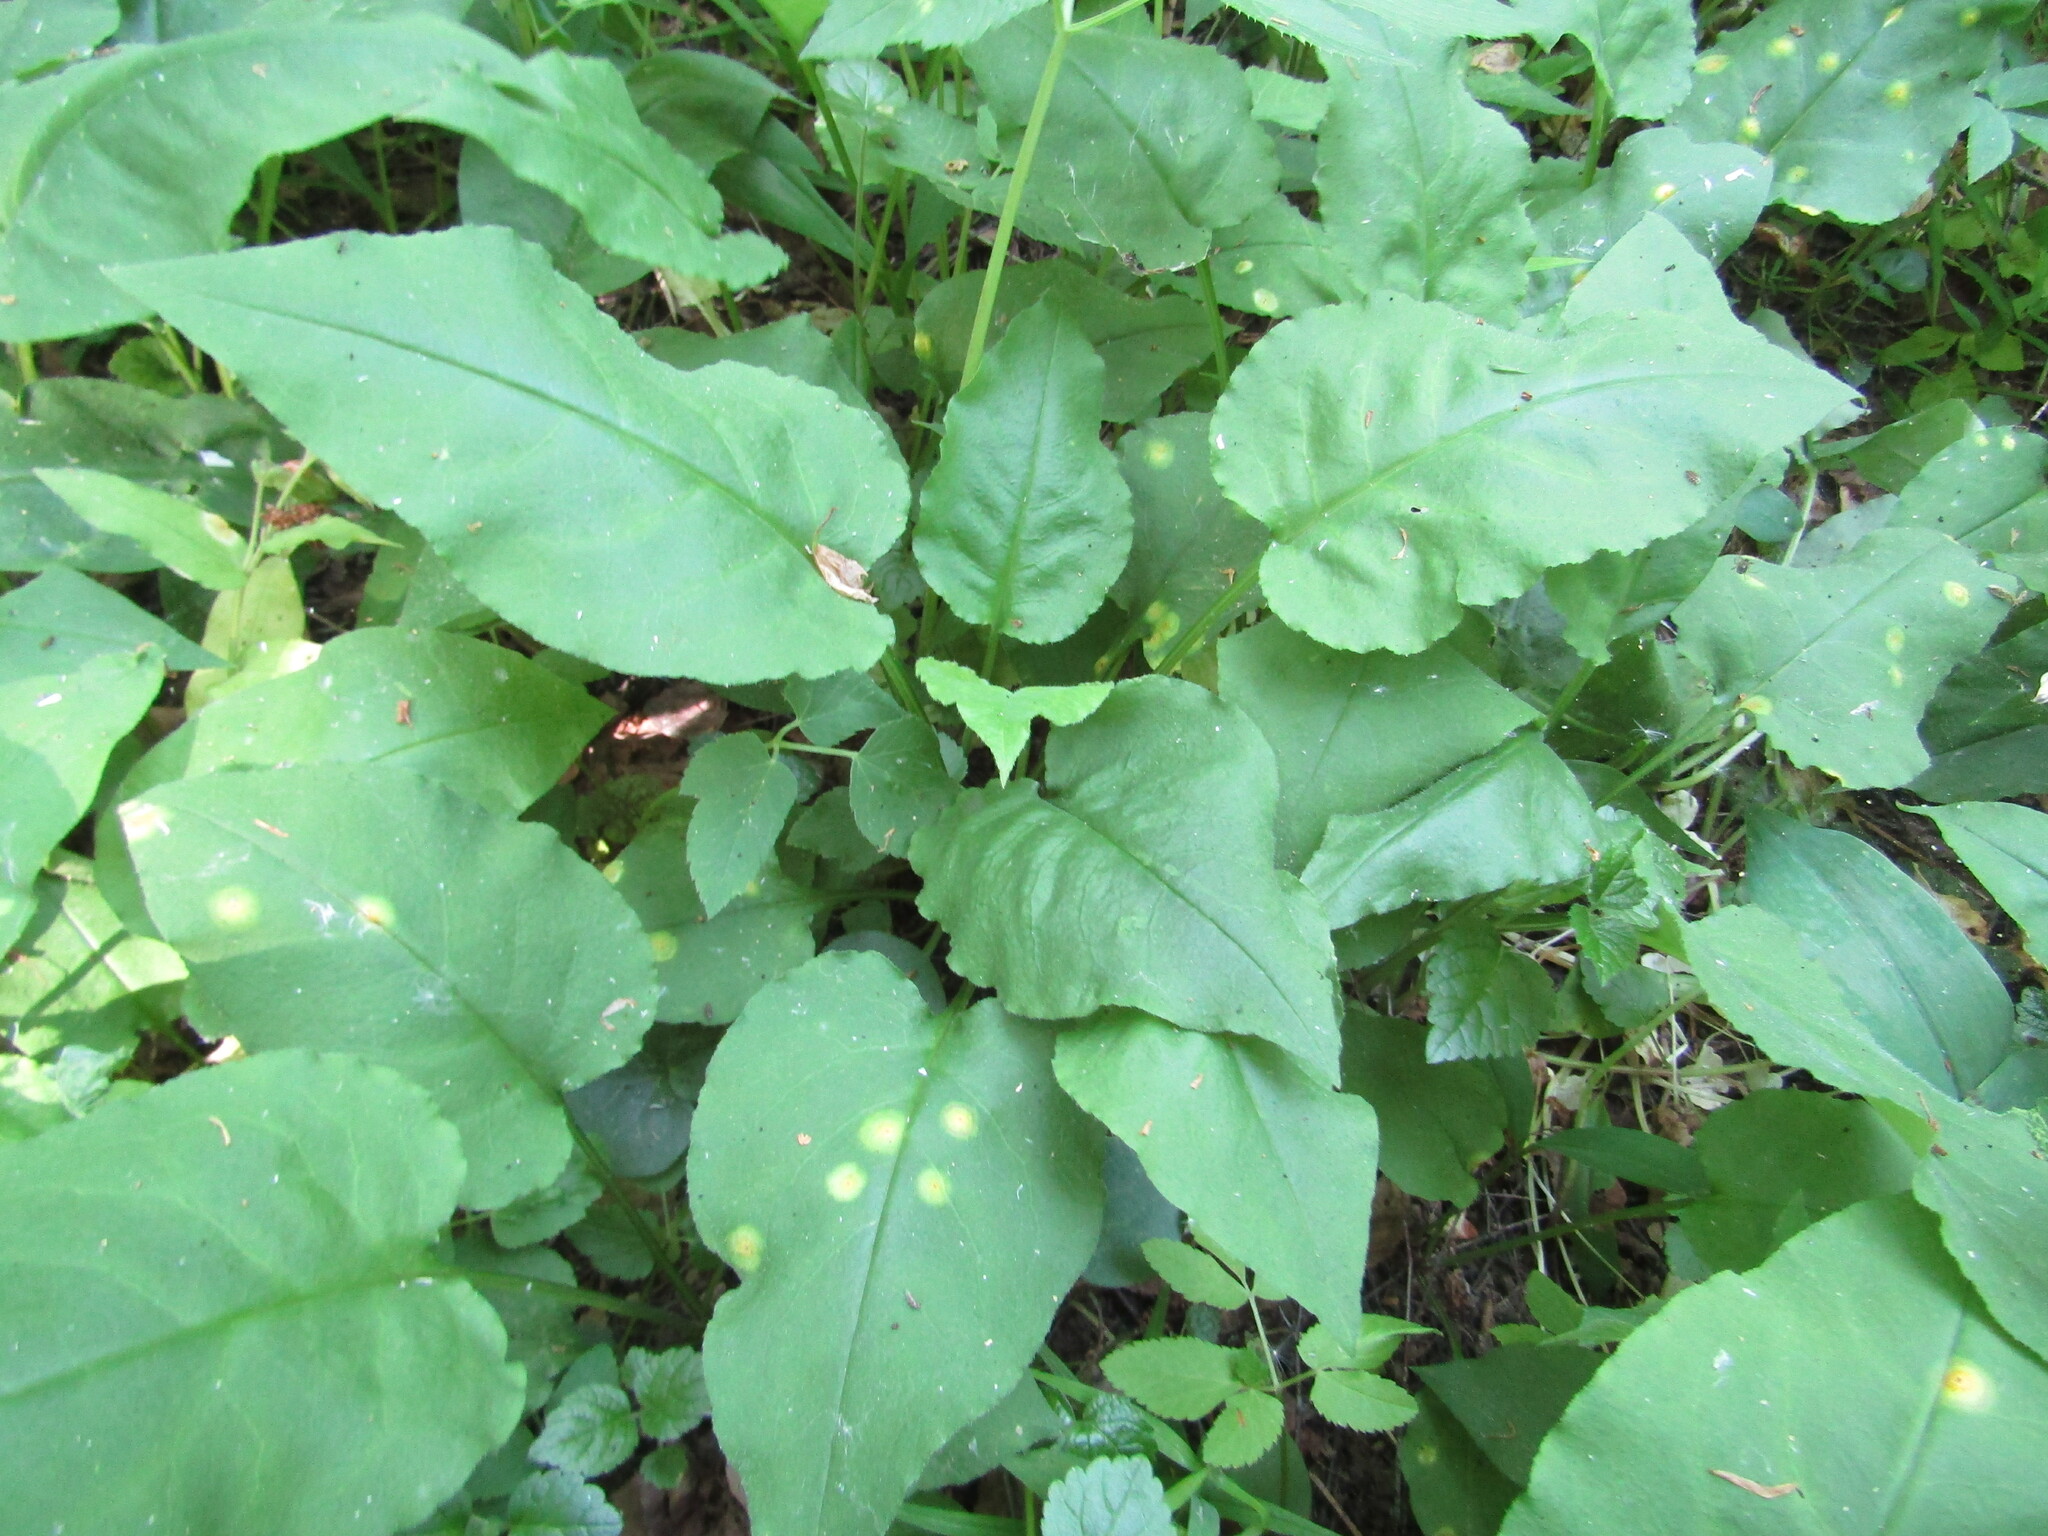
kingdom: Plantae
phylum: Tracheophyta
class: Magnoliopsida
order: Boraginales
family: Boraginaceae
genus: Pulmonaria
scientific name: Pulmonaria obscura
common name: Suffolk lungwort
